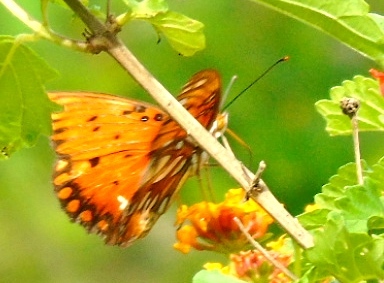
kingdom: Animalia
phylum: Arthropoda
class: Insecta
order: Lepidoptera
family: Nymphalidae
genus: Dione
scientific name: Dione vanillae
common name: Gulf fritillary
